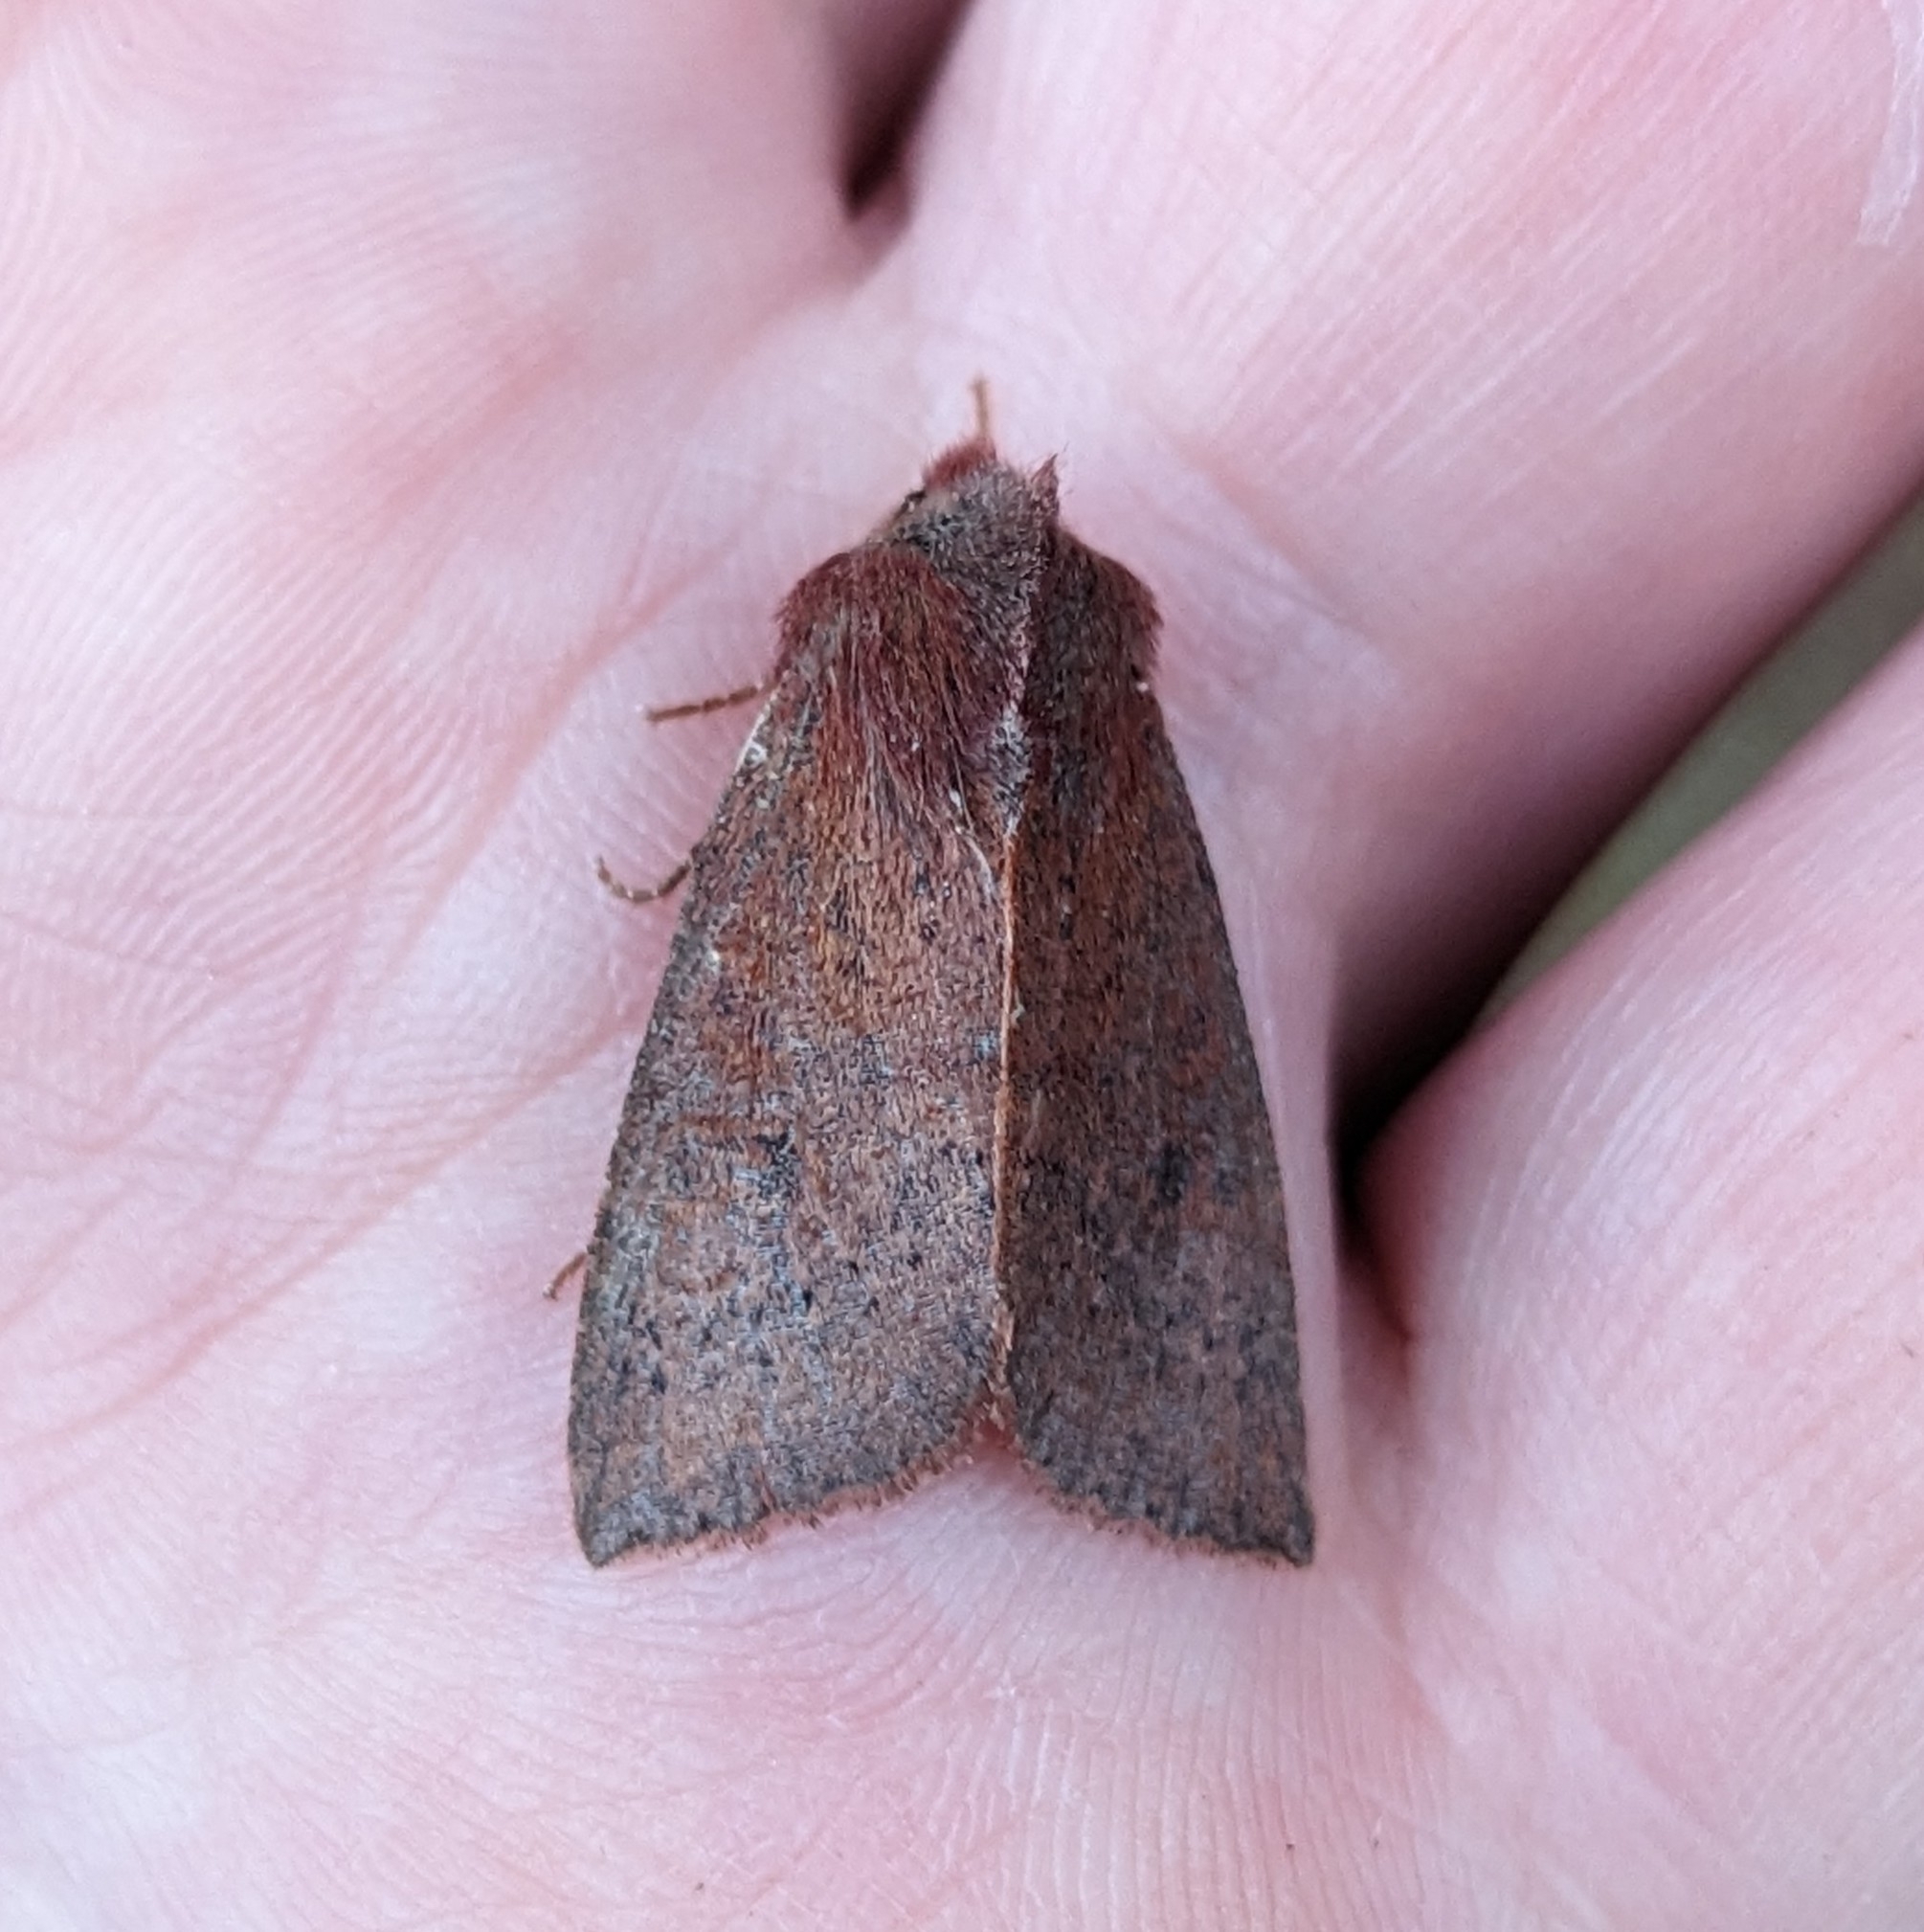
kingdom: Animalia
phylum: Arthropoda
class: Insecta
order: Lepidoptera
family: Noctuidae
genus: Orthosia
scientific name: Orthosia transparens
